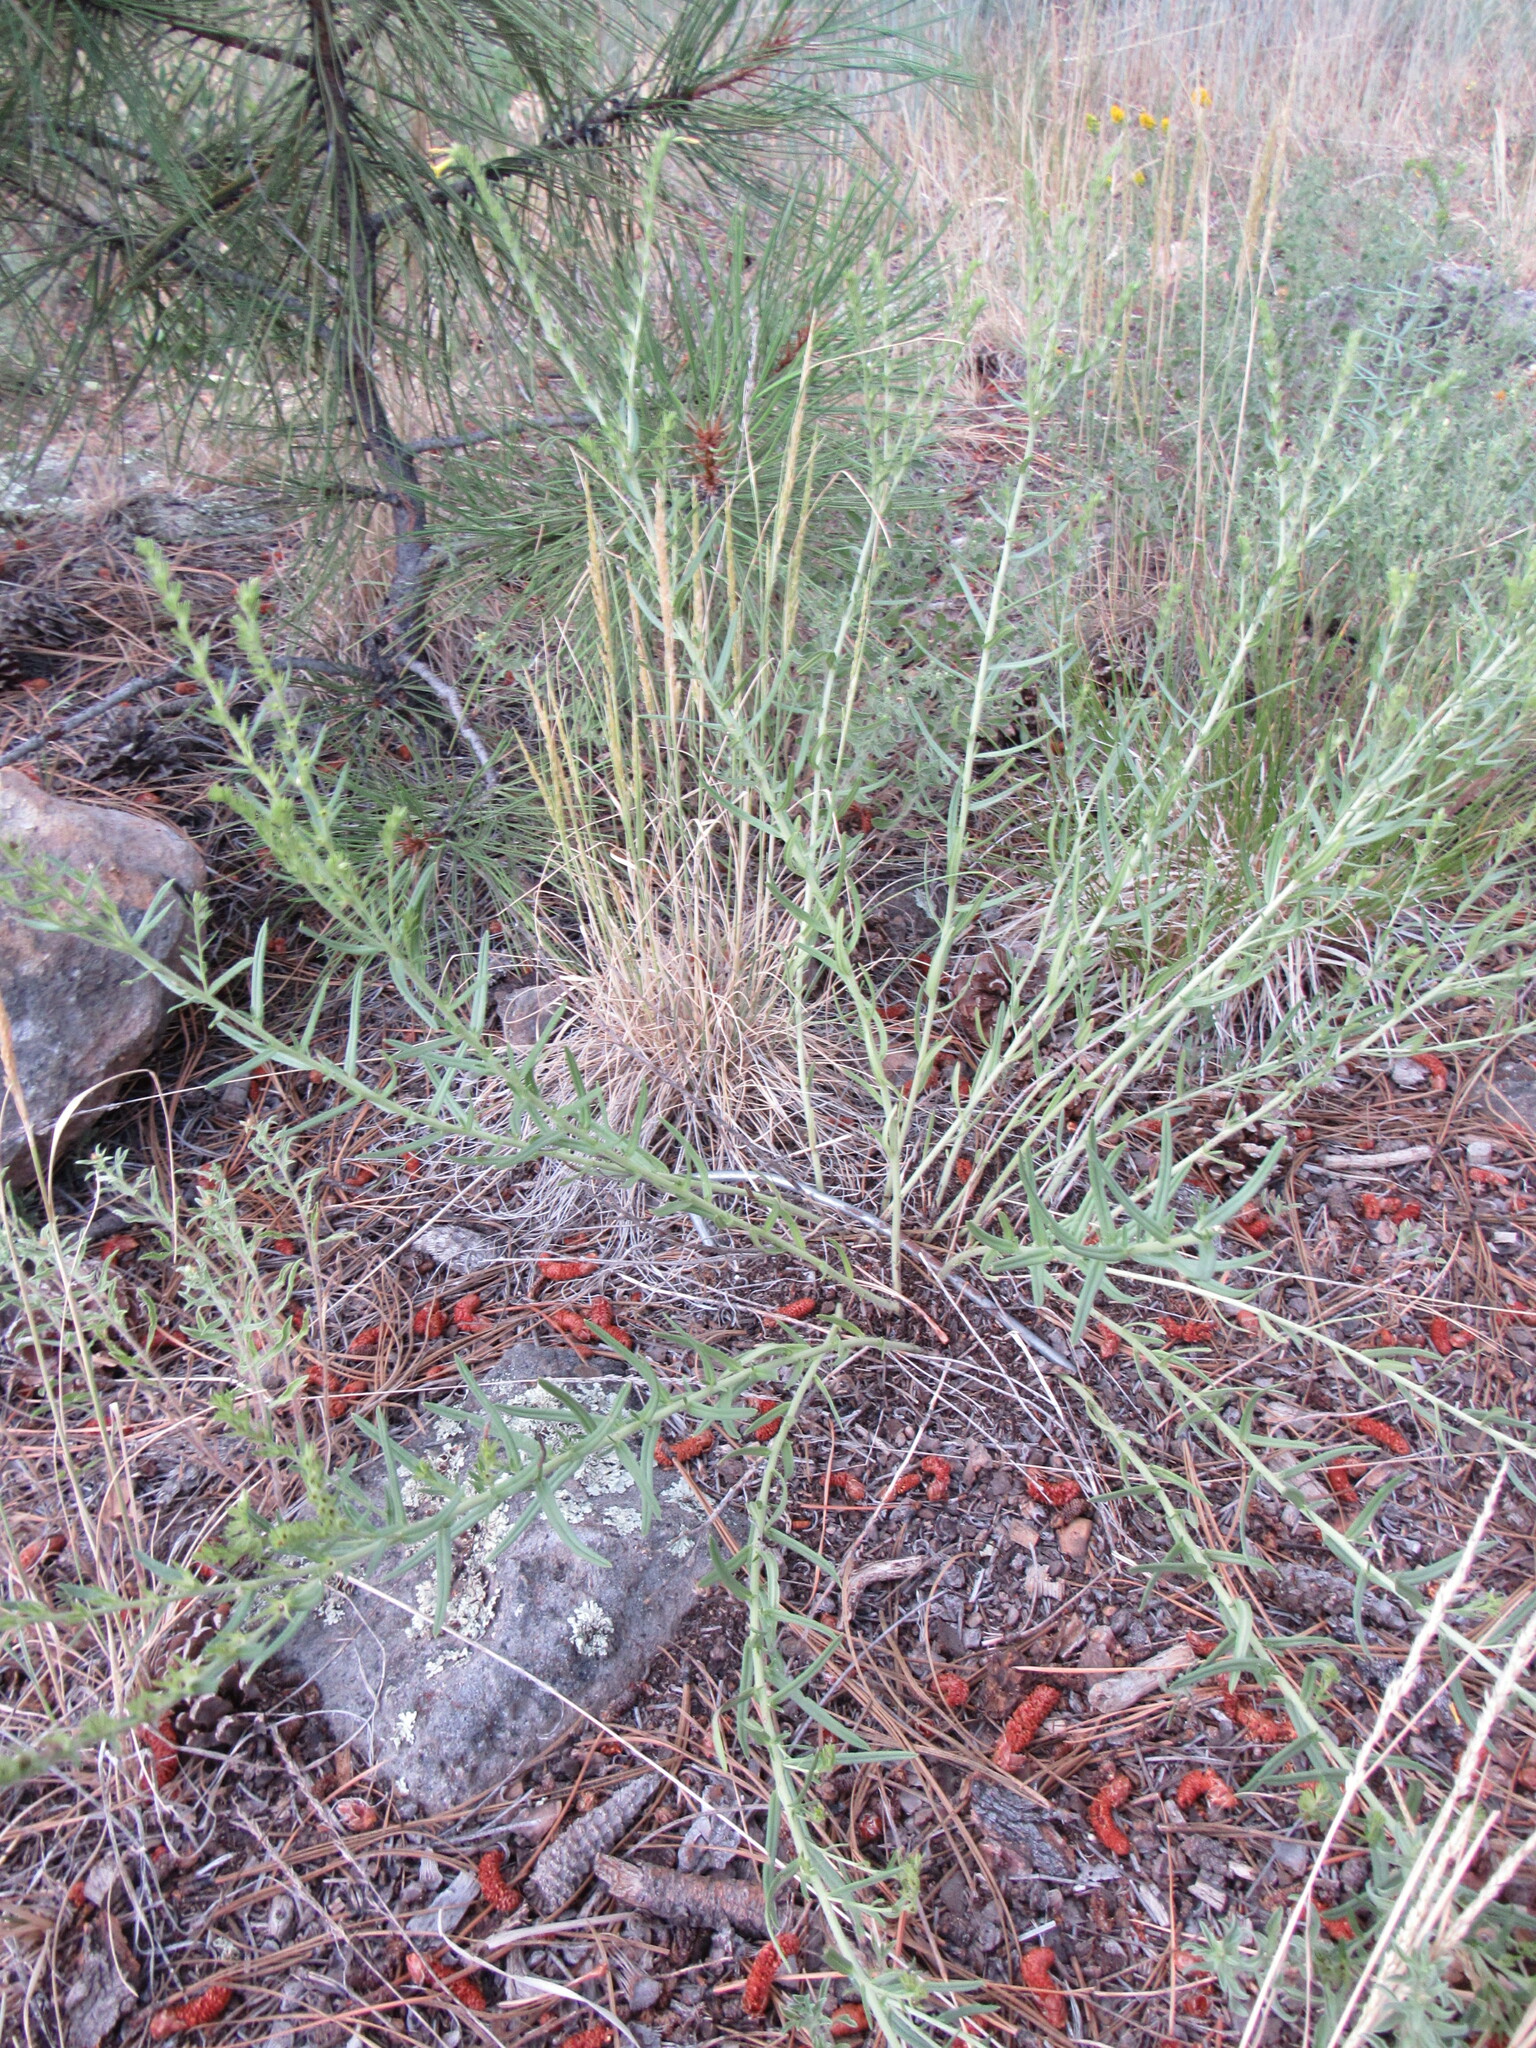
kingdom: Plantae
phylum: Tracheophyta
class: Magnoliopsida
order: Boraginales
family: Boraginaceae
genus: Lithospermum
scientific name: Lithospermum multiflorum
